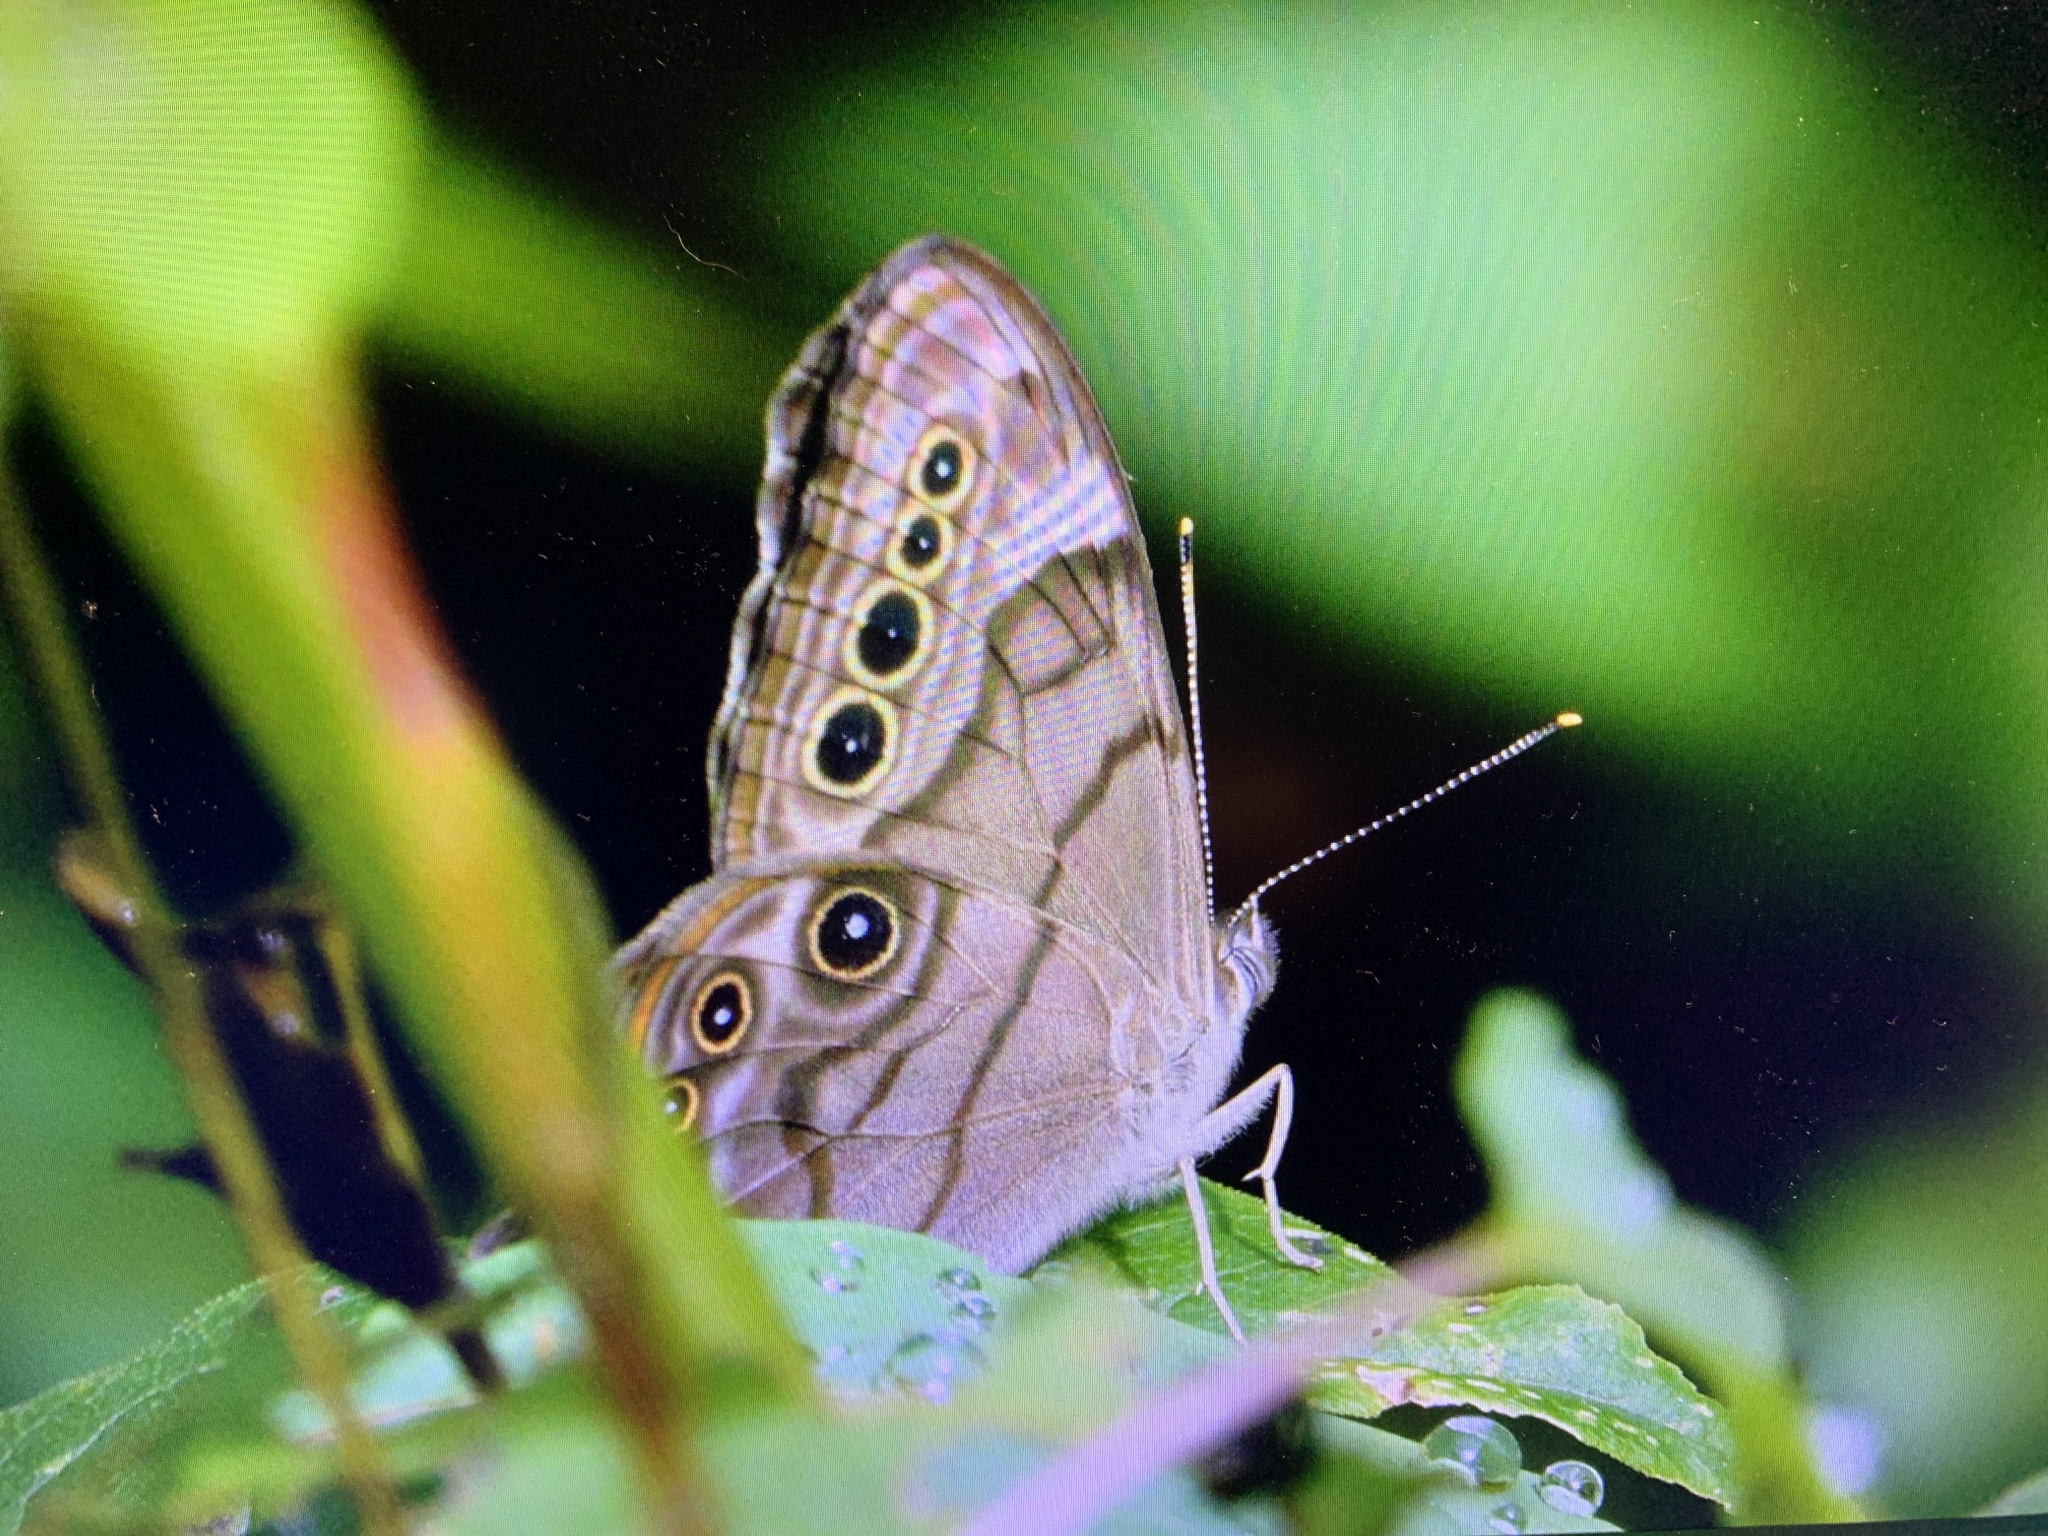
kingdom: Animalia
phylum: Arthropoda
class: Insecta
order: Lepidoptera
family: Nymphalidae
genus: Lethe
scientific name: Lethe anthedon
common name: Northern pearly-eye
